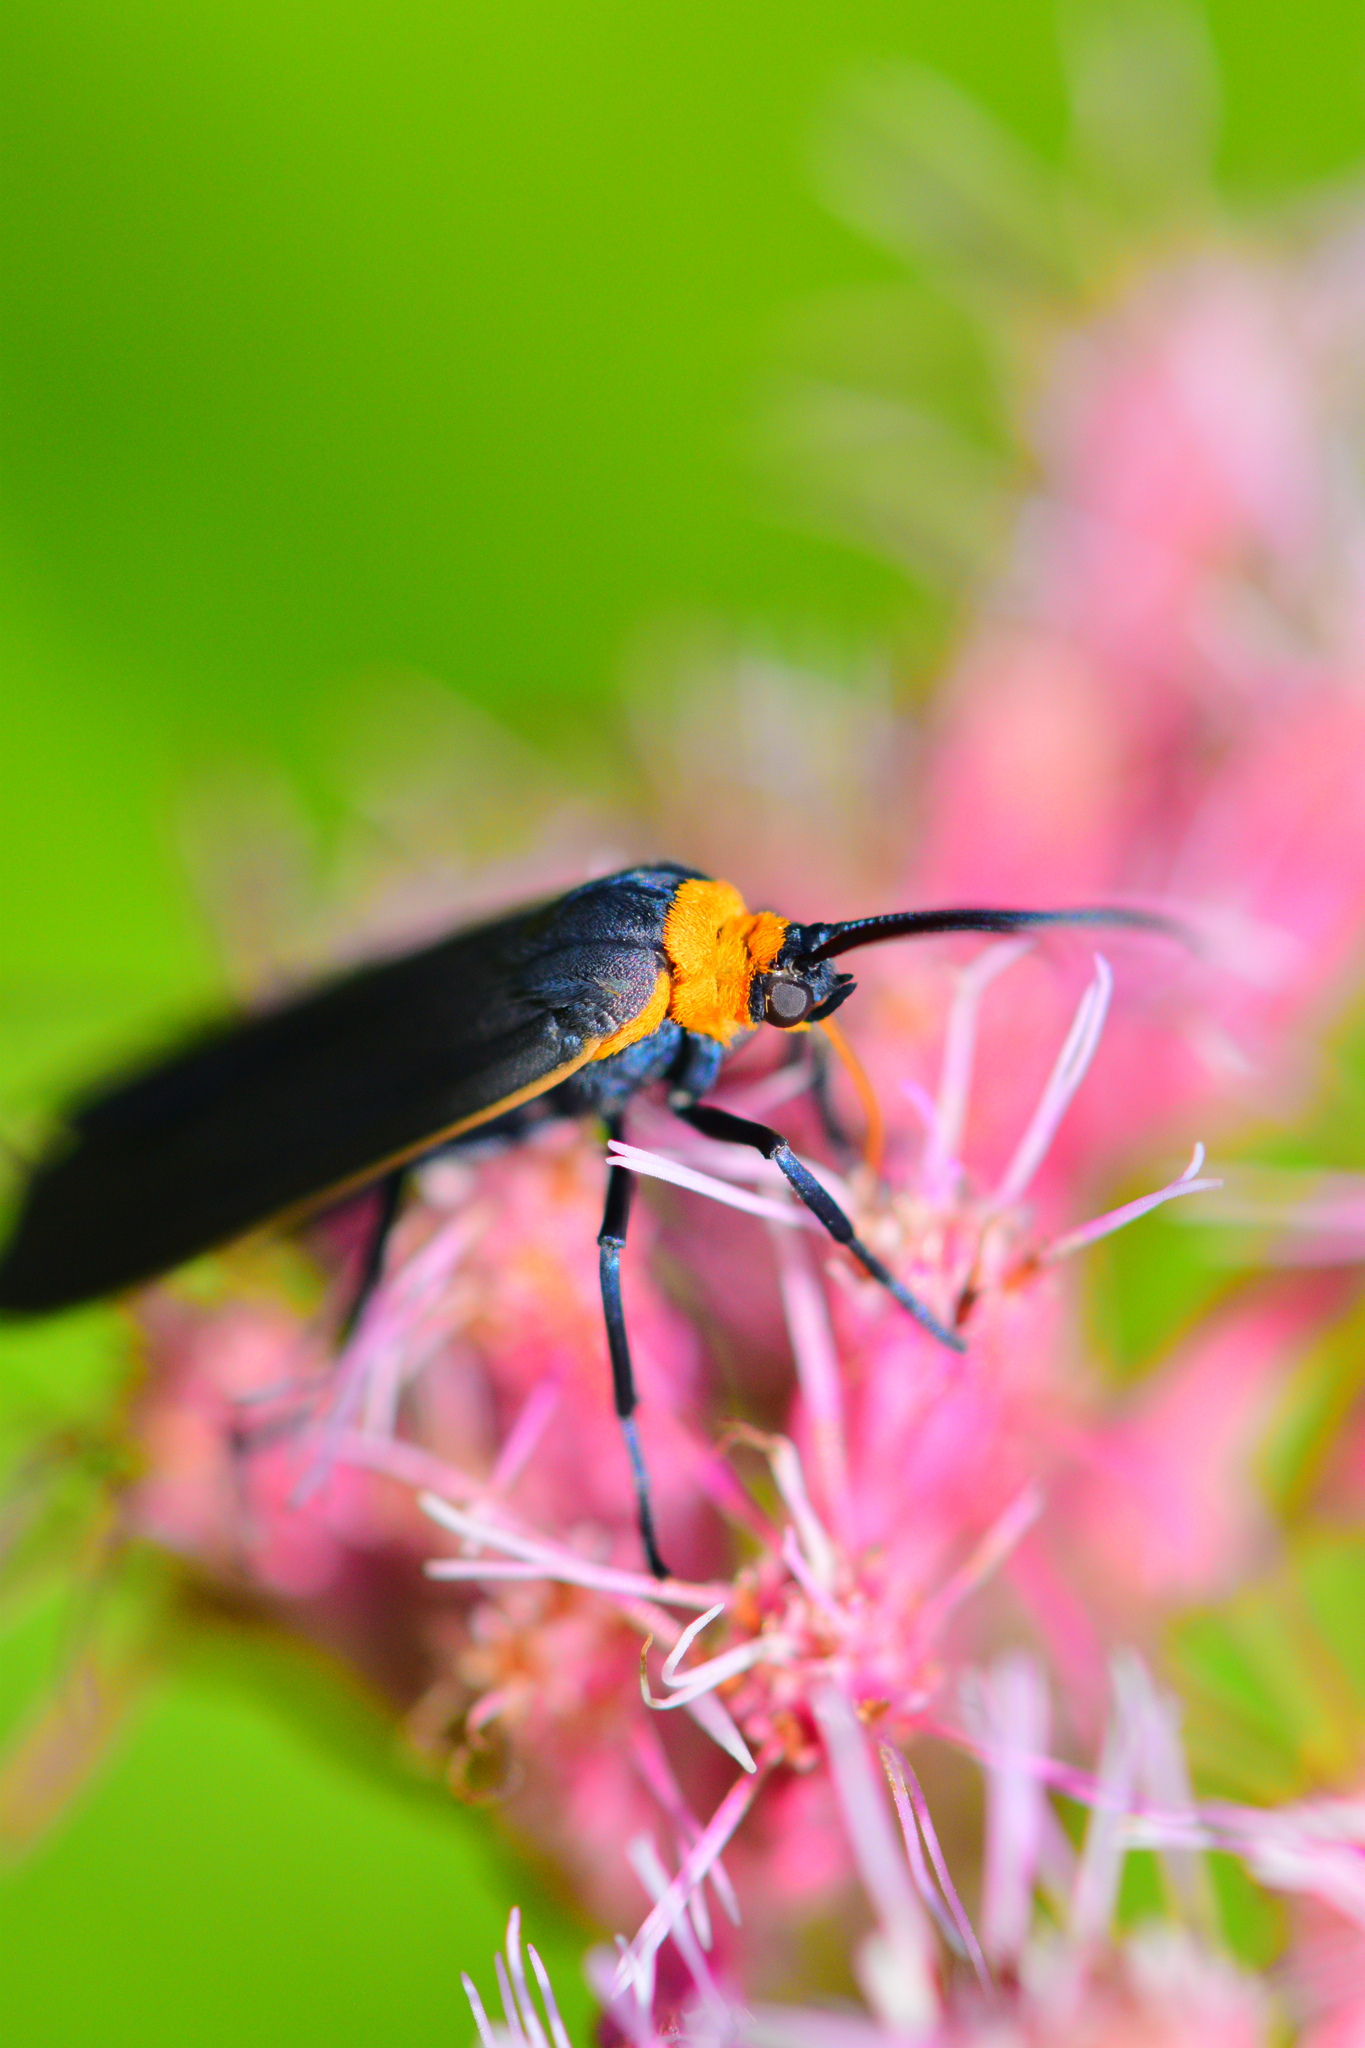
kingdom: Animalia
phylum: Arthropoda
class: Insecta
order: Lepidoptera
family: Erebidae
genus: Cisseps
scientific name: Cisseps fulvicollis
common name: Yellow-collared scape moth
